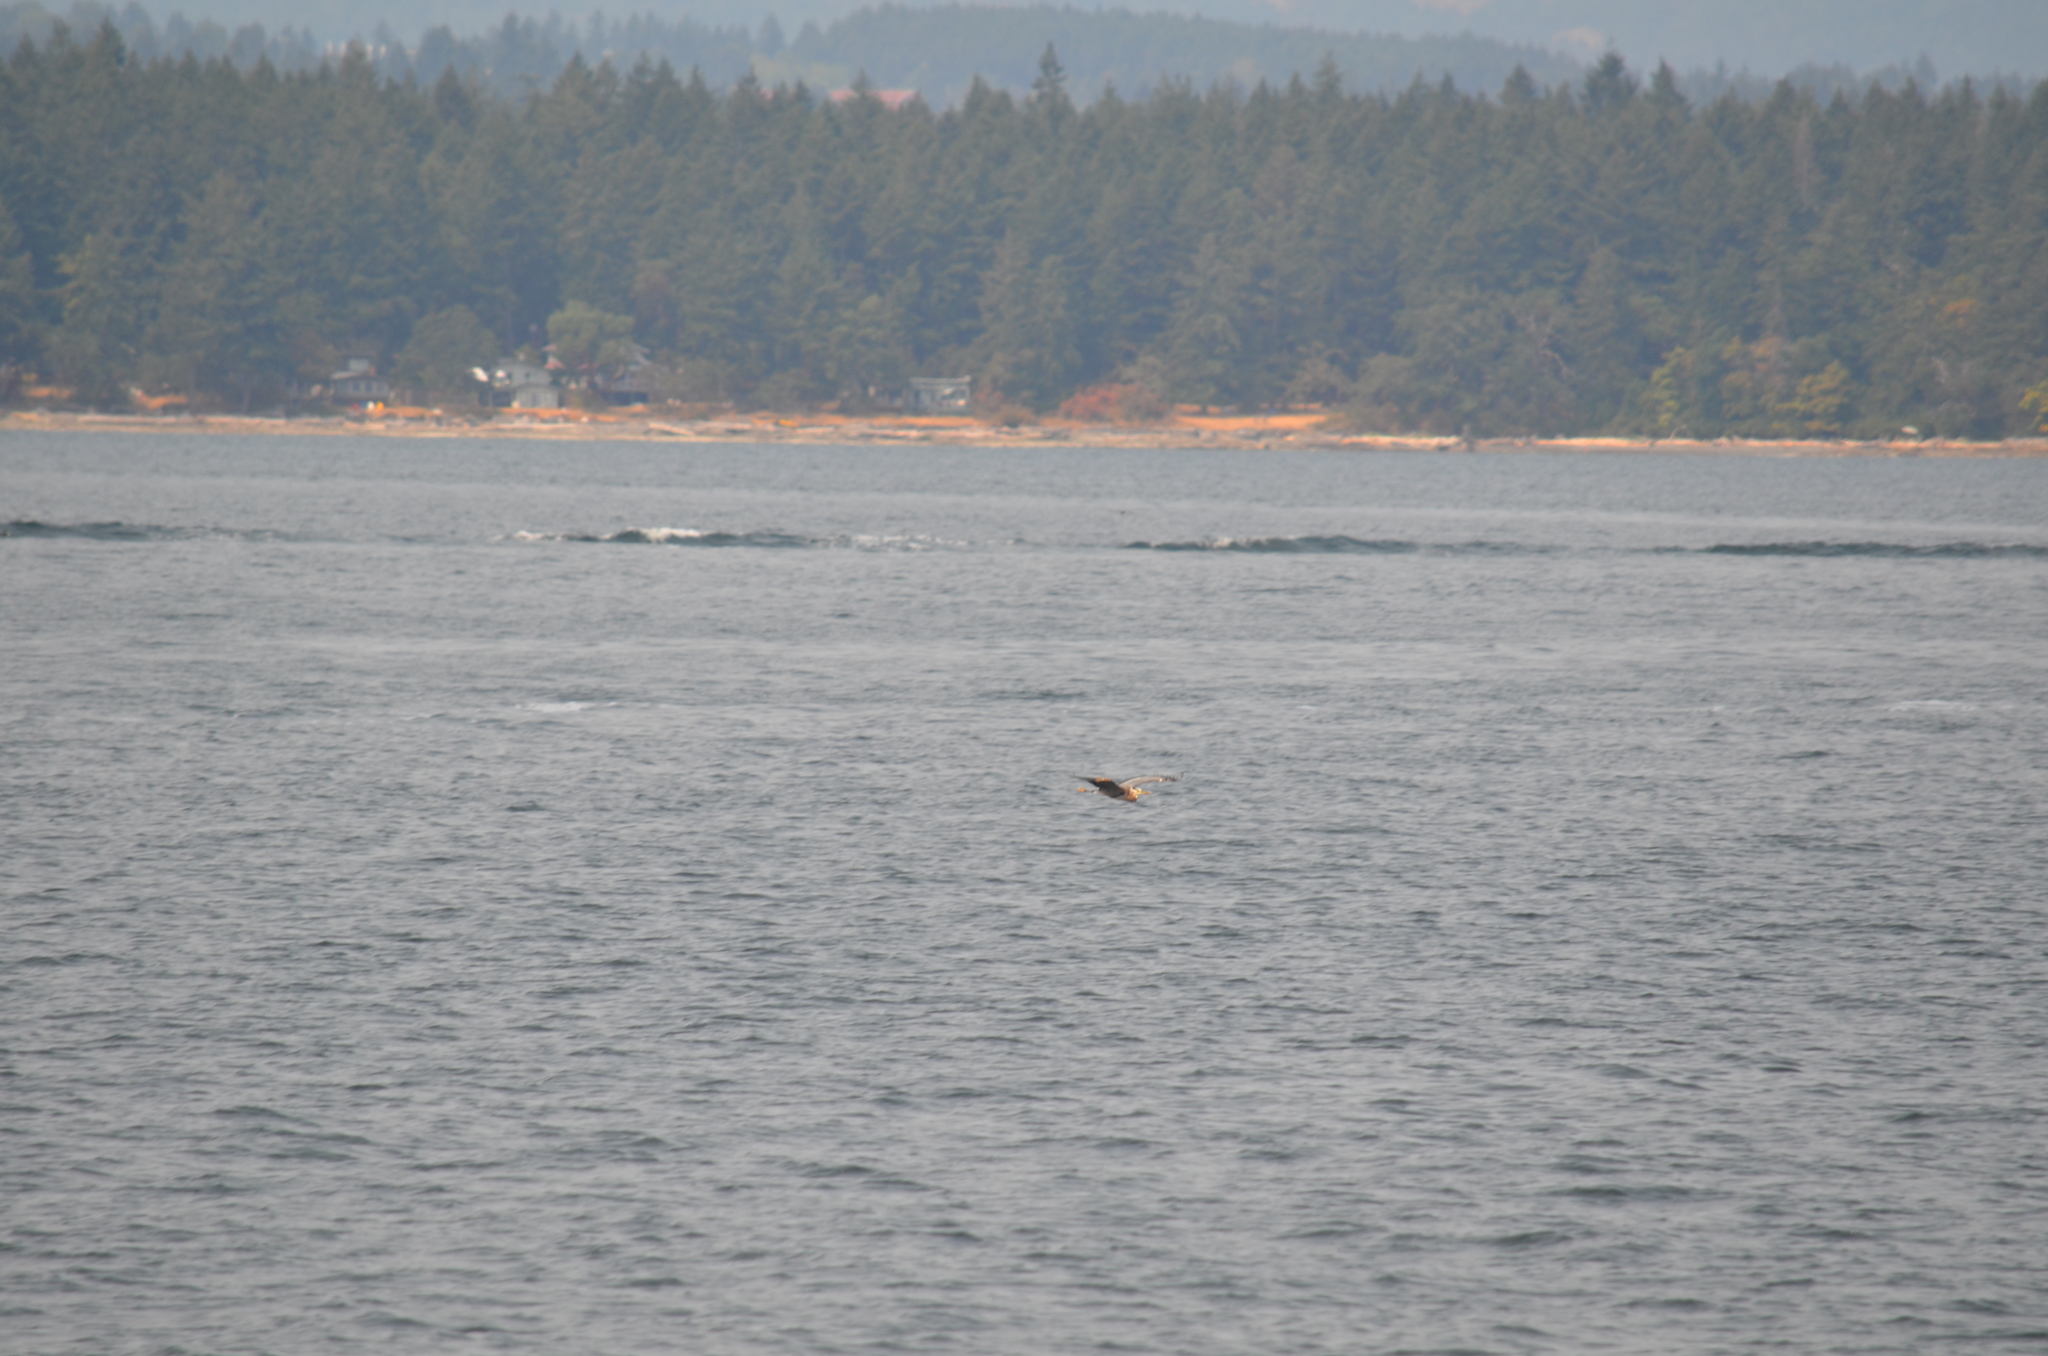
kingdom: Animalia
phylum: Chordata
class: Aves
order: Pelecaniformes
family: Ardeidae
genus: Ardea
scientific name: Ardea herodias
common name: Great blue heron
